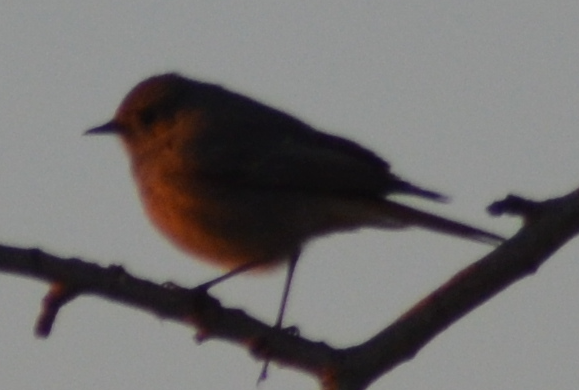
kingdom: Animalia
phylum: Chordata
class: Aves
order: Passeriformes
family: Muscicapidae
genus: Phoenicurus
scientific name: Phoenicurus ochruros
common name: Black redstart
